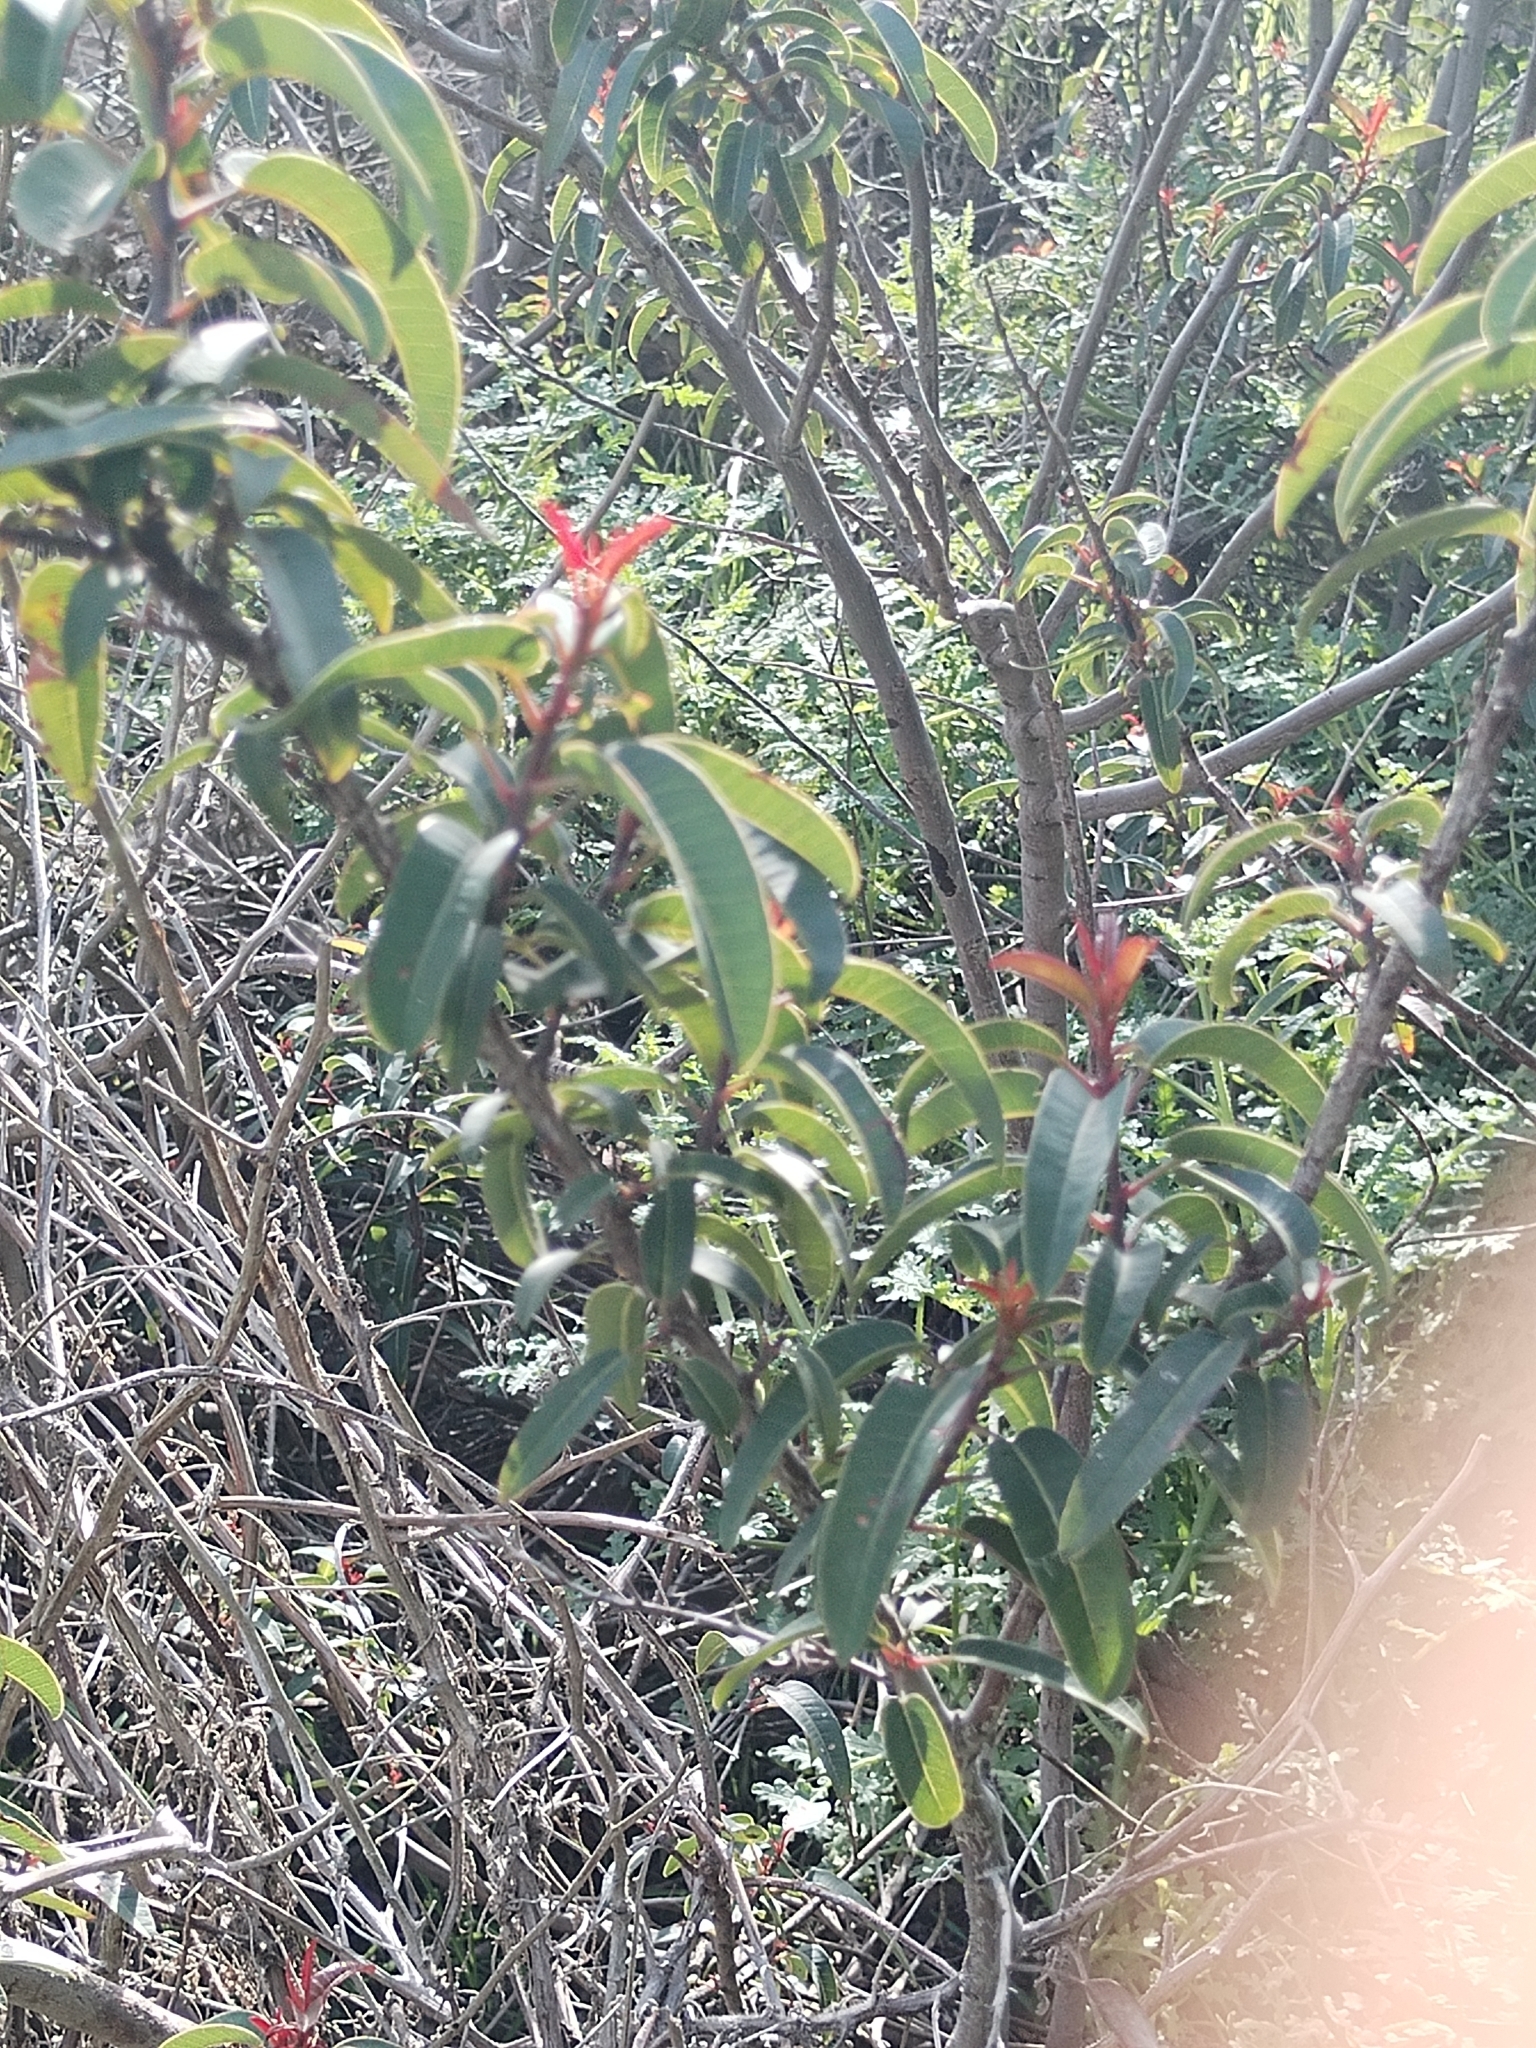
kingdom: Plantae
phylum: Tracheophyta
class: Magnoliopsida
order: Sapindales
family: Anacardiaceae
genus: Malosma
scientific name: Malosma laurina
